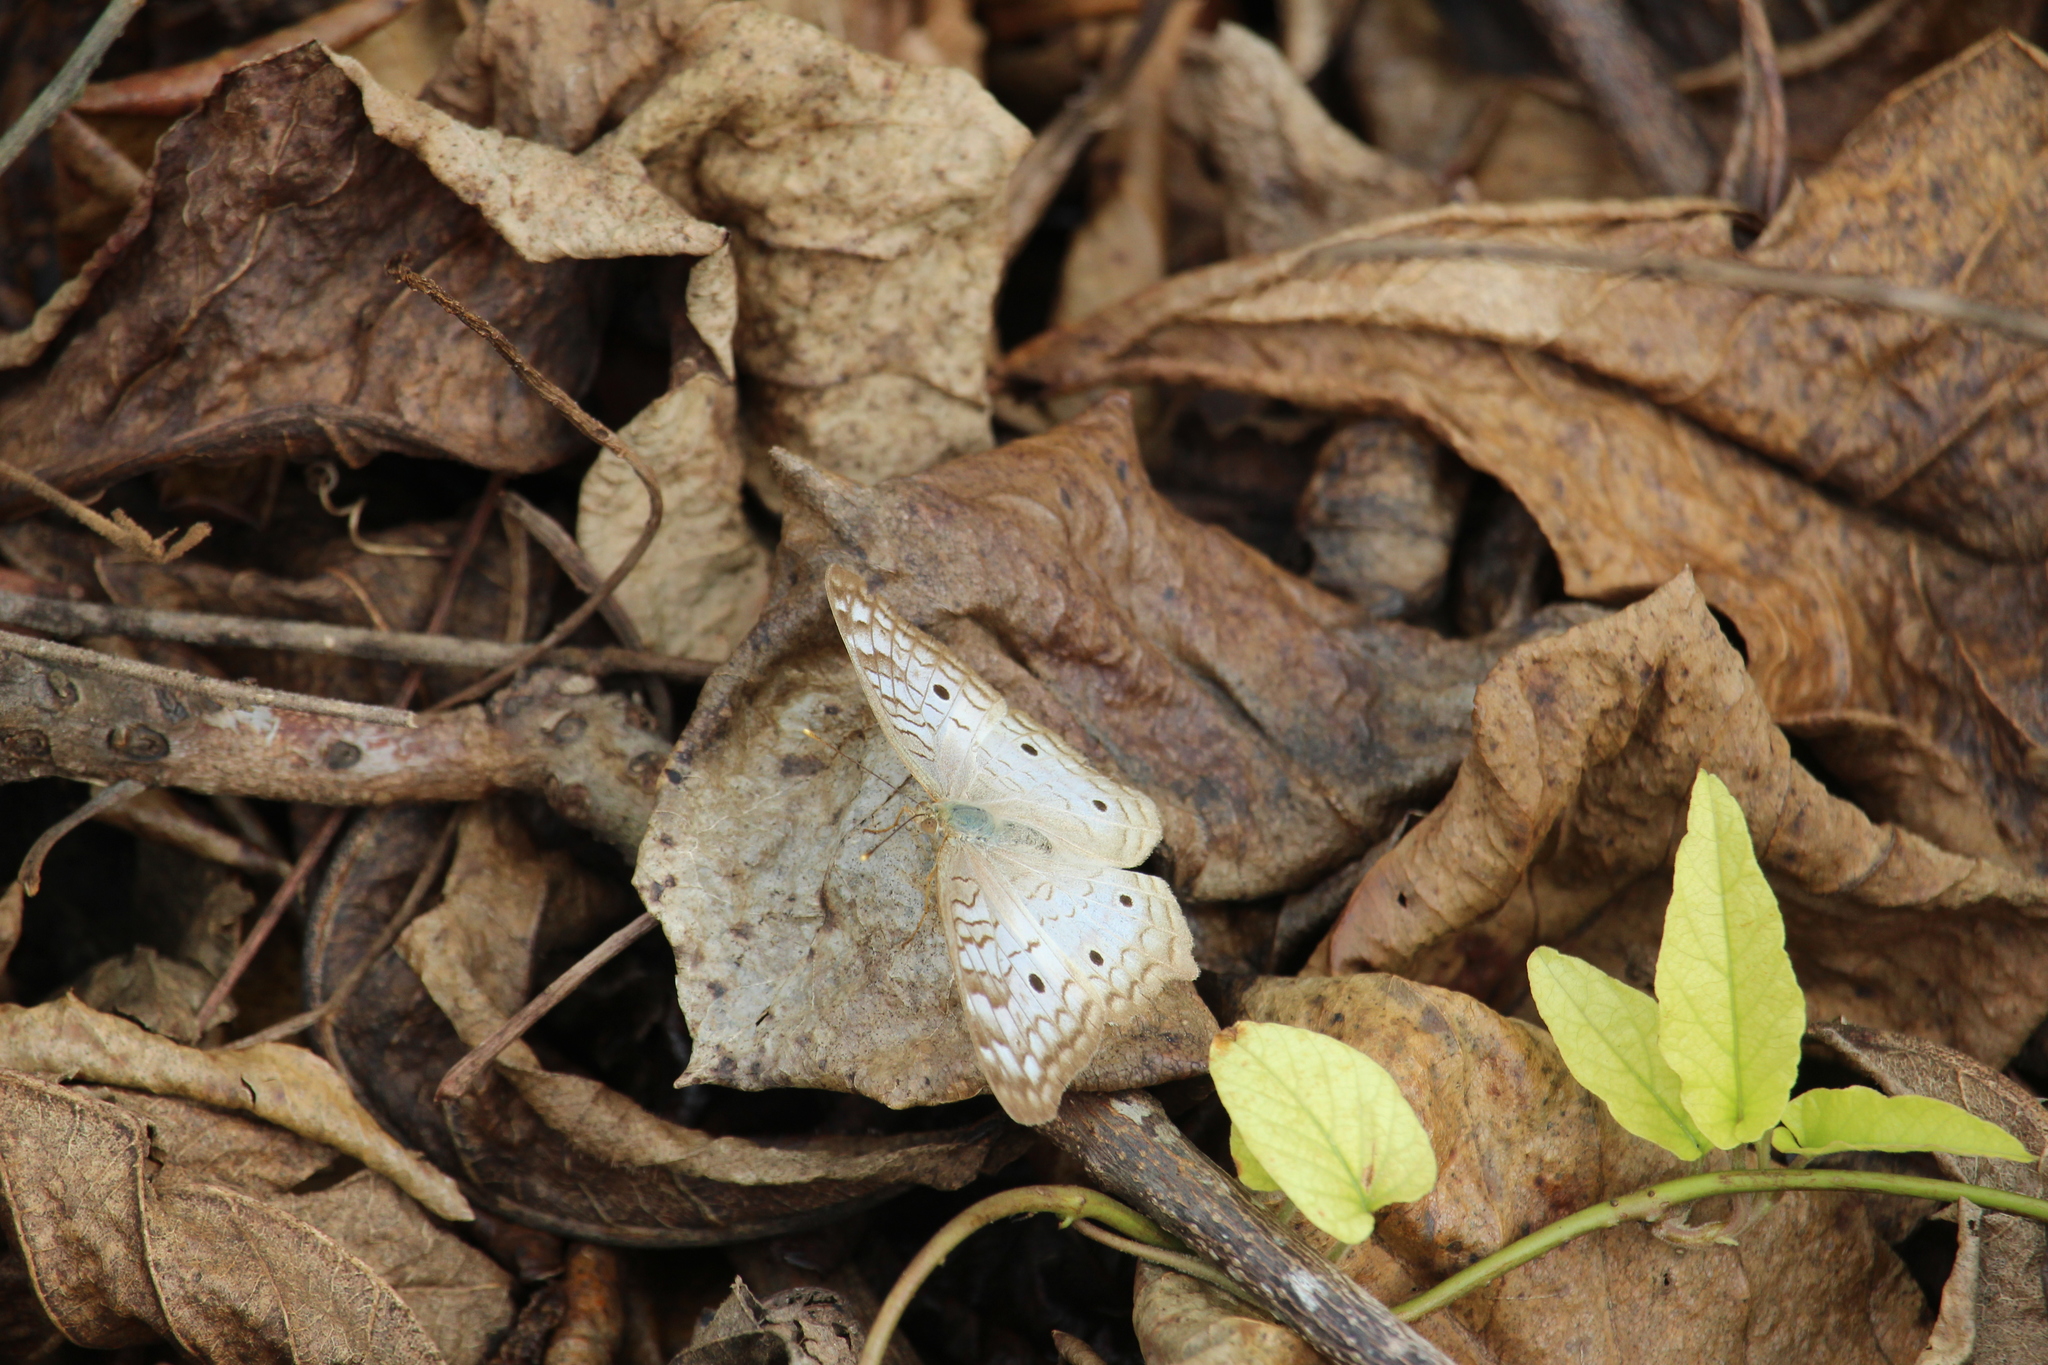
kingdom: Animalia
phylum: Arthropoda
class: Insecta
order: Lepidoptera
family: Nymphalidae
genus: Anartia
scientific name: Anartia jatrophae
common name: White peacock
